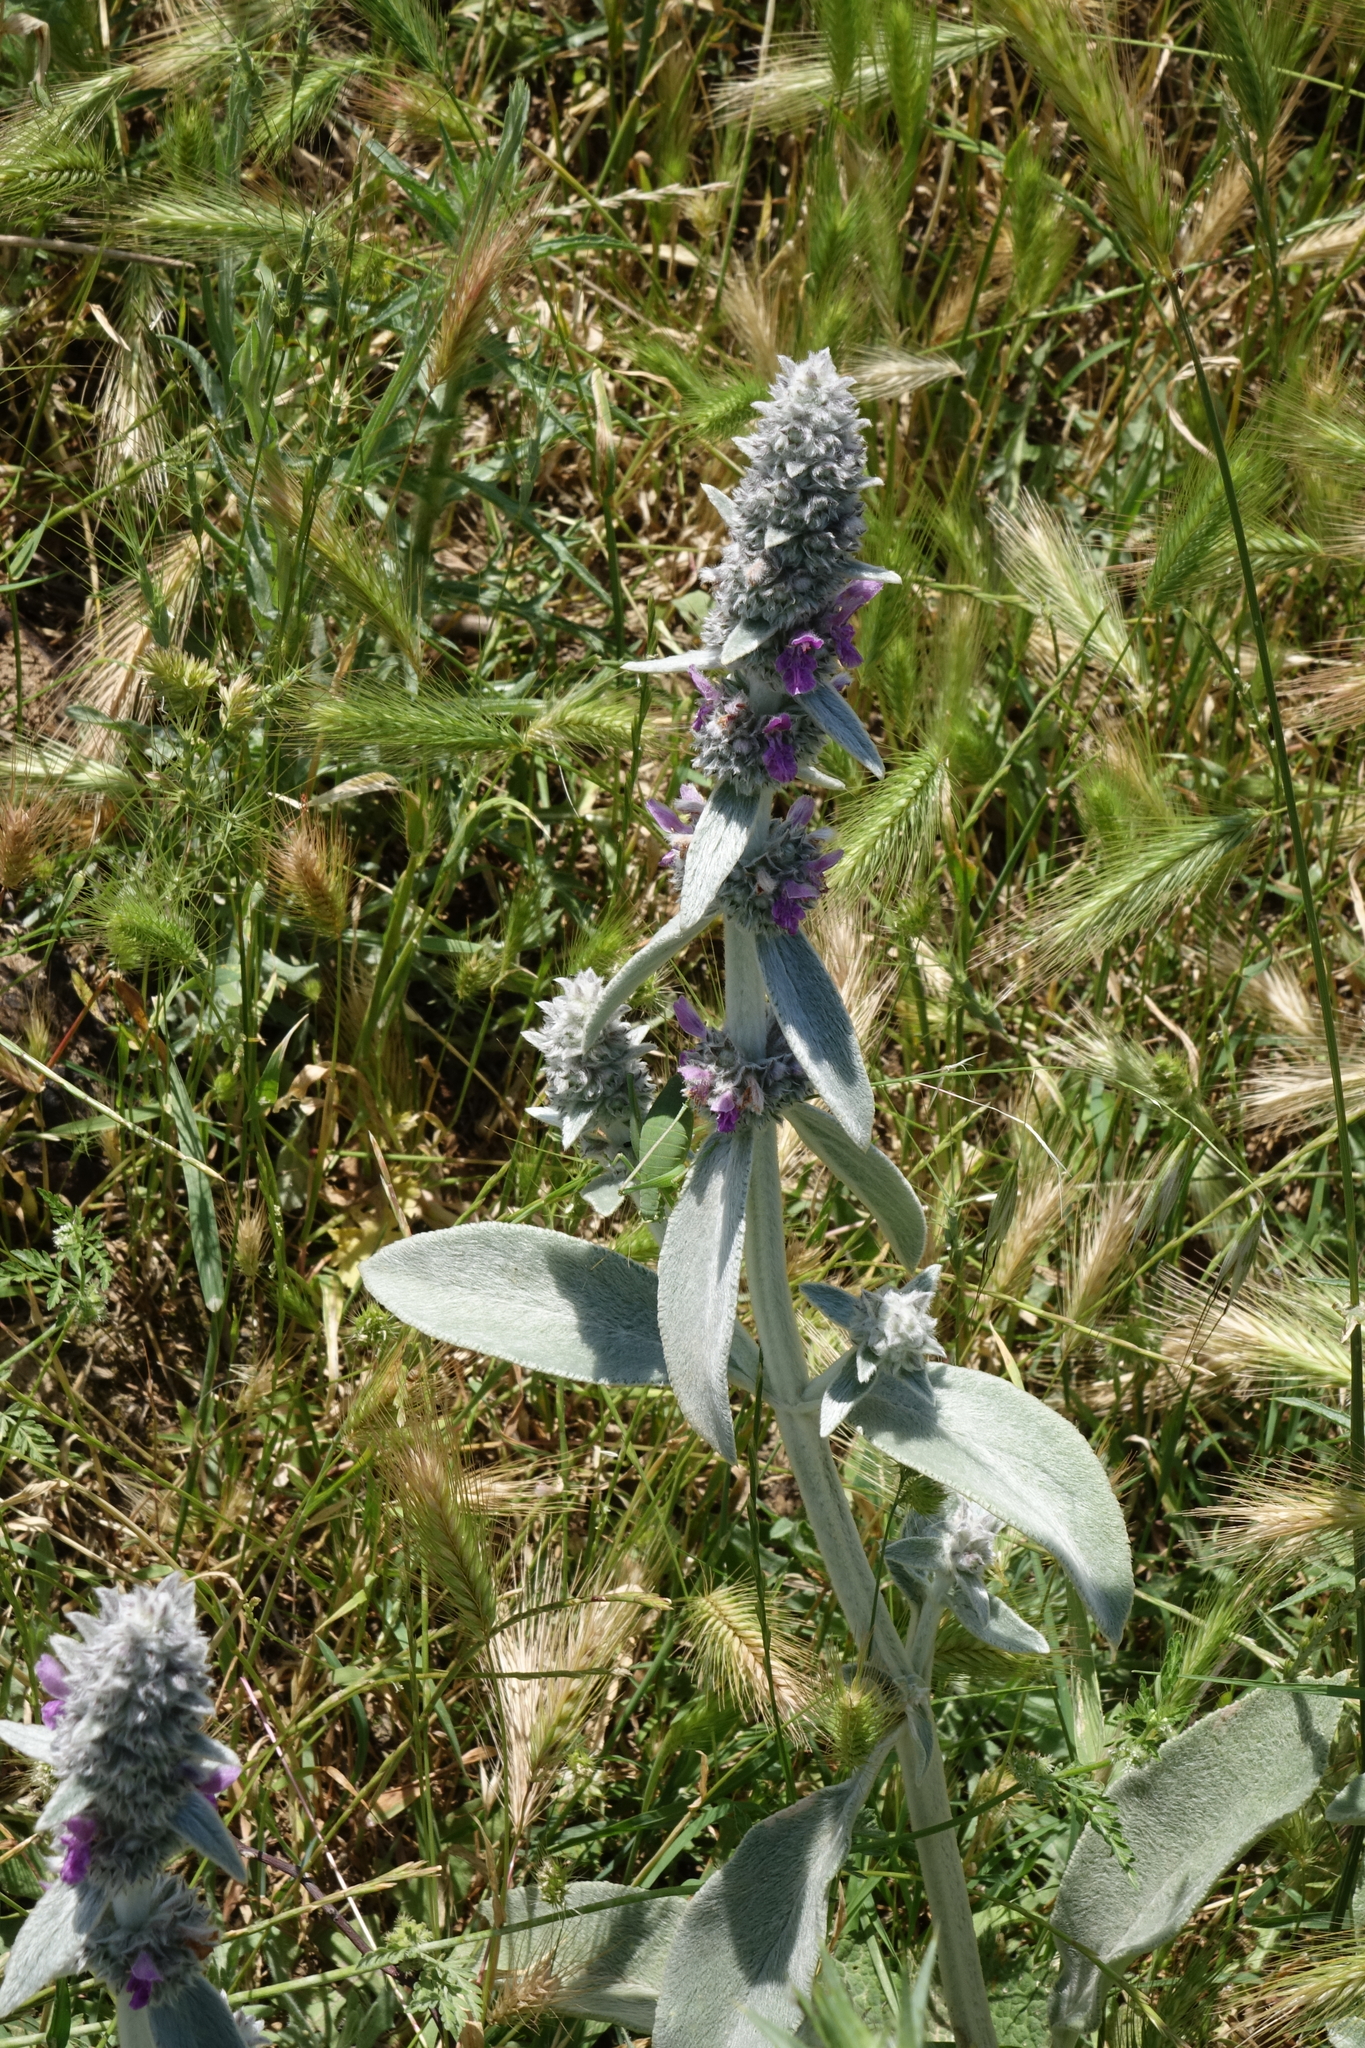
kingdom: Plantae
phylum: Tracheophyta
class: Magnoliopsida
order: Lamiales
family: Lamiaceae
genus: Stachys
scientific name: Stachys byzantina
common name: Lamb's-ear
